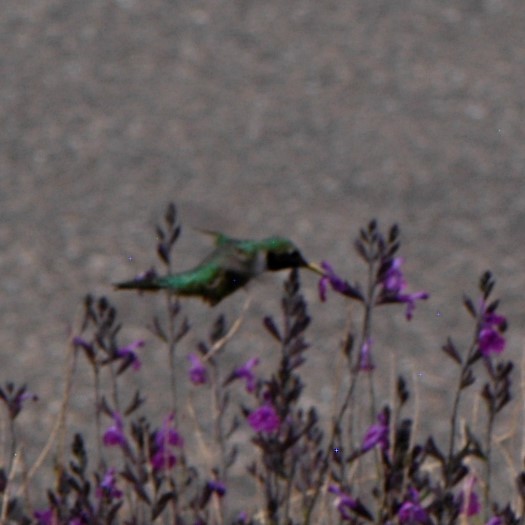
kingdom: Animalia
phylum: Chordata
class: Aves
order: Apodiformes
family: Trochilidae
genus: Selasphorus
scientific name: Selasphorus platycercus
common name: Broad-tailed hummingbird
